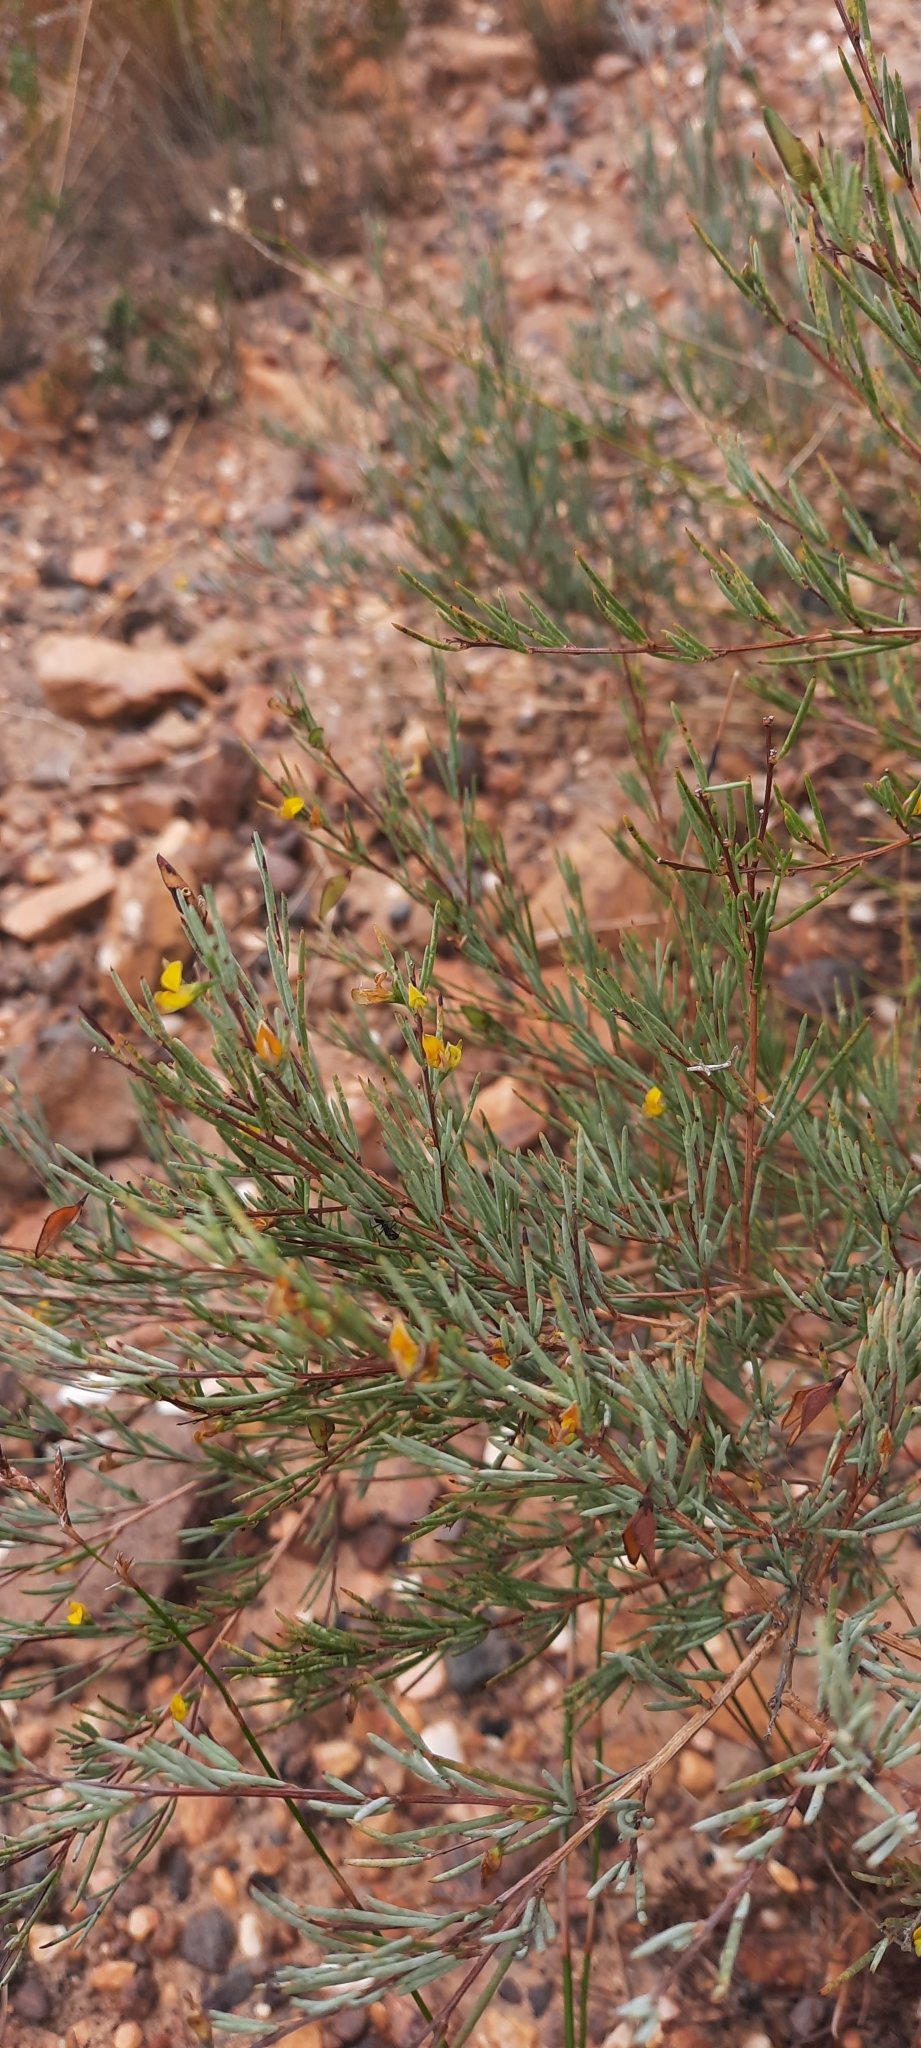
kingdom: Plantae
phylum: Tracheophyta
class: Magnoliopsida
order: Fabales
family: Fabaceae
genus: Aspalathus
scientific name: Aspalathus linearis
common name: Rooibos-tea
